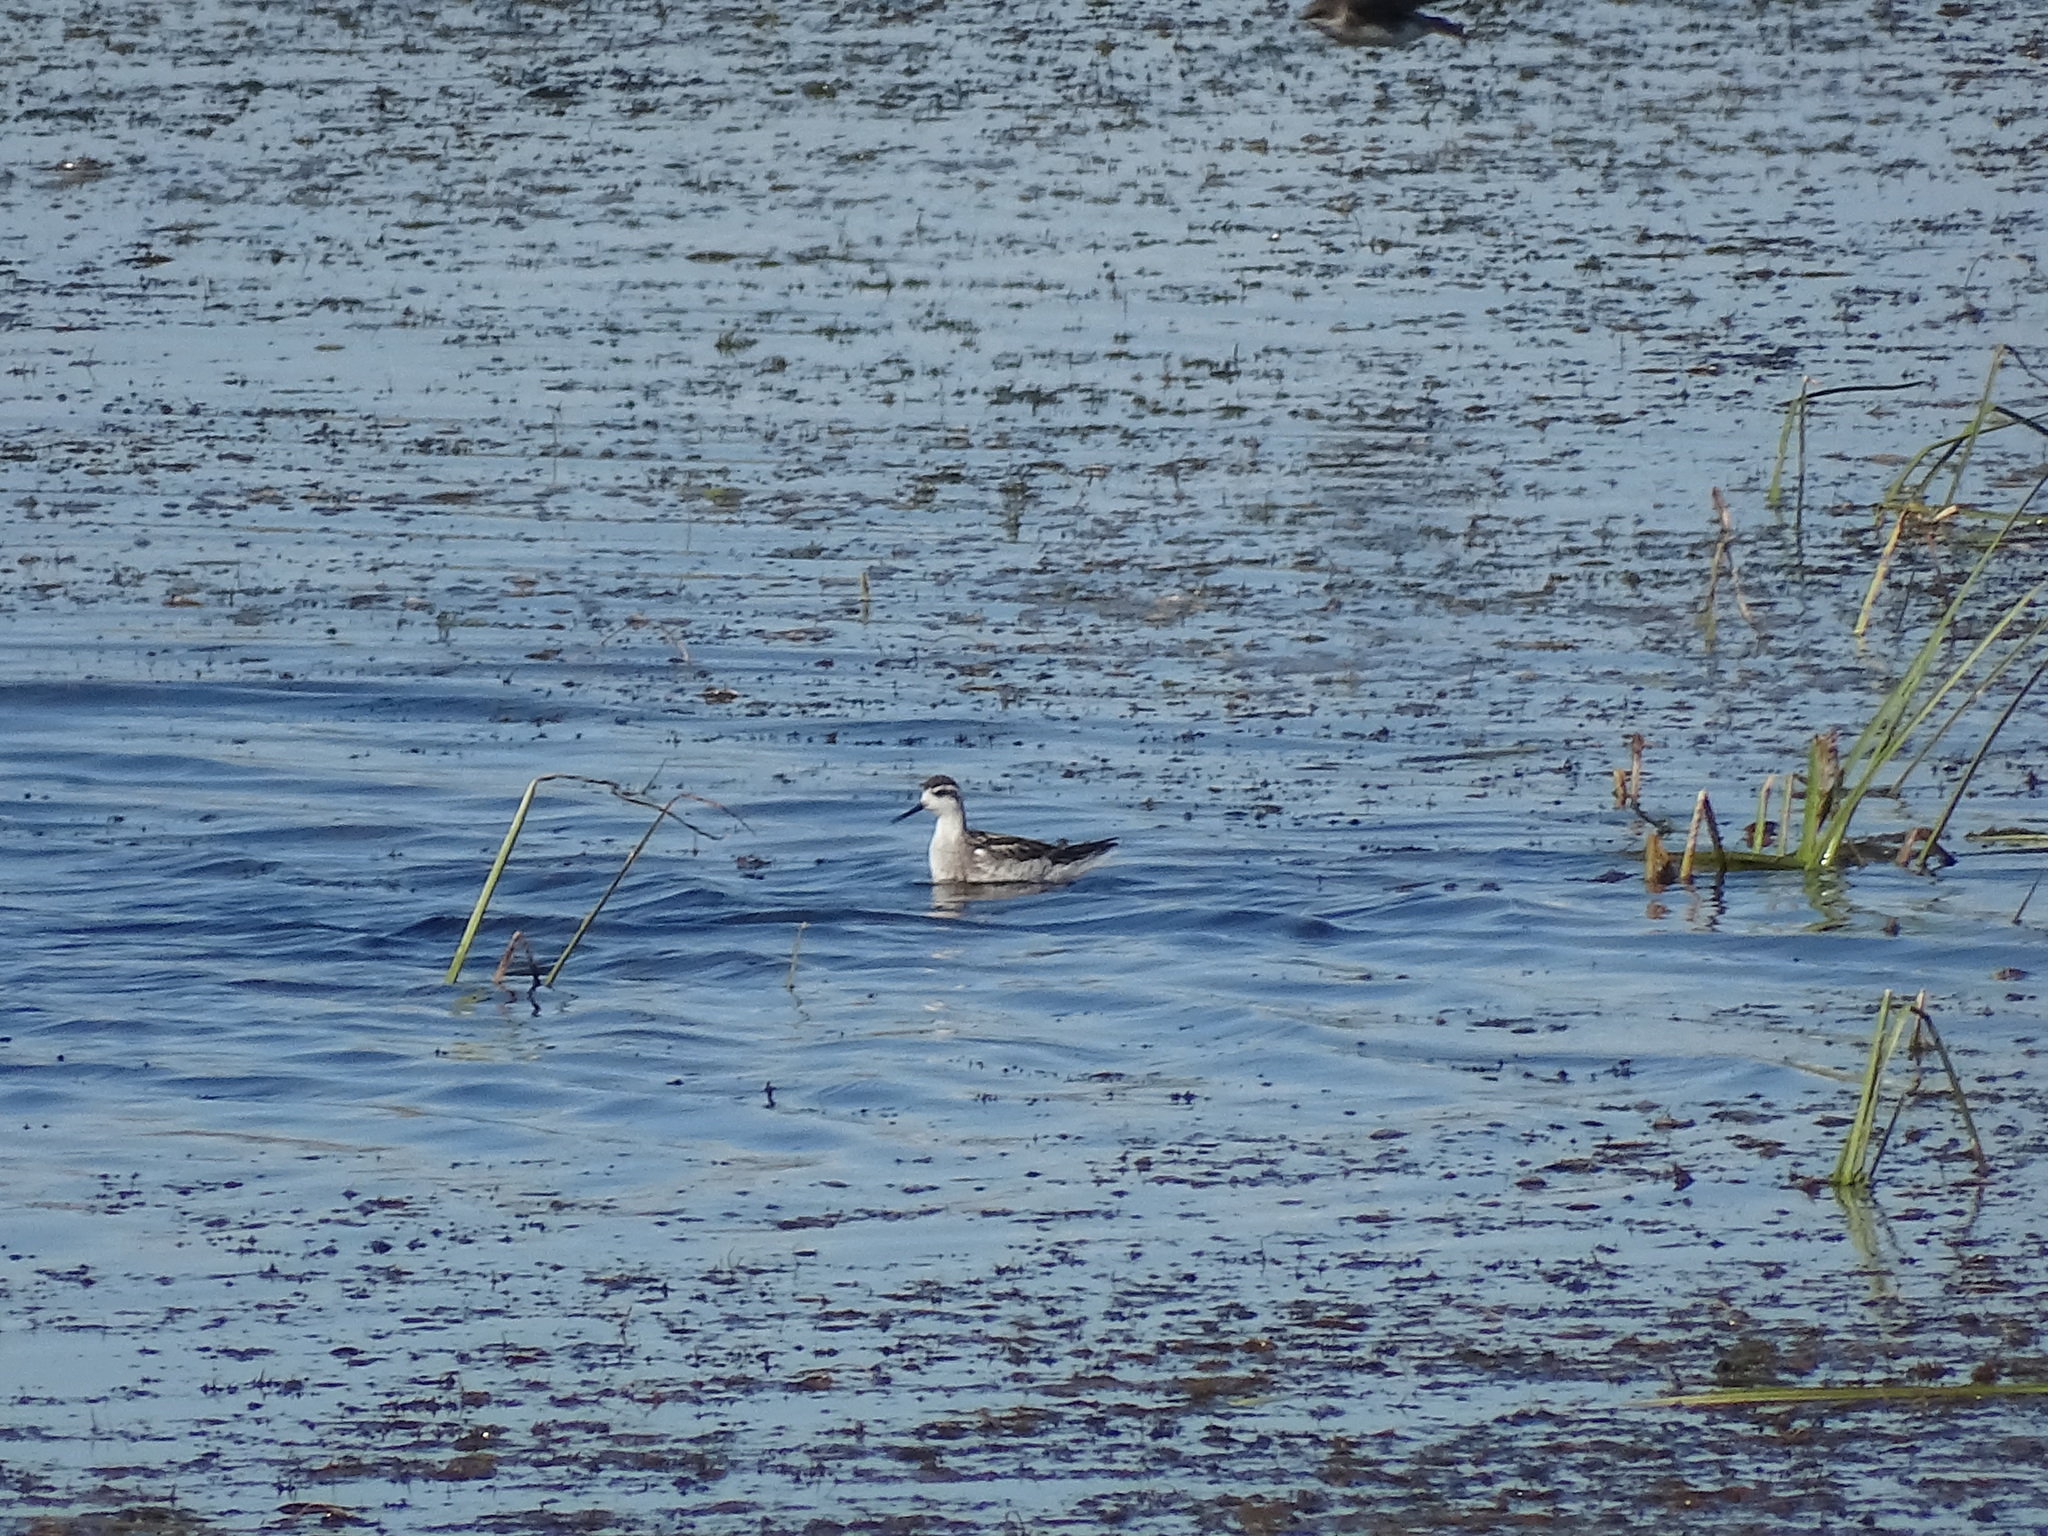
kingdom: Animalia
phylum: Chordata
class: Aves
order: Charadriiformes
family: Scolopacidae
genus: Phalaropus
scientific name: Phalaropus lobatus
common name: Red-necked phalarope
